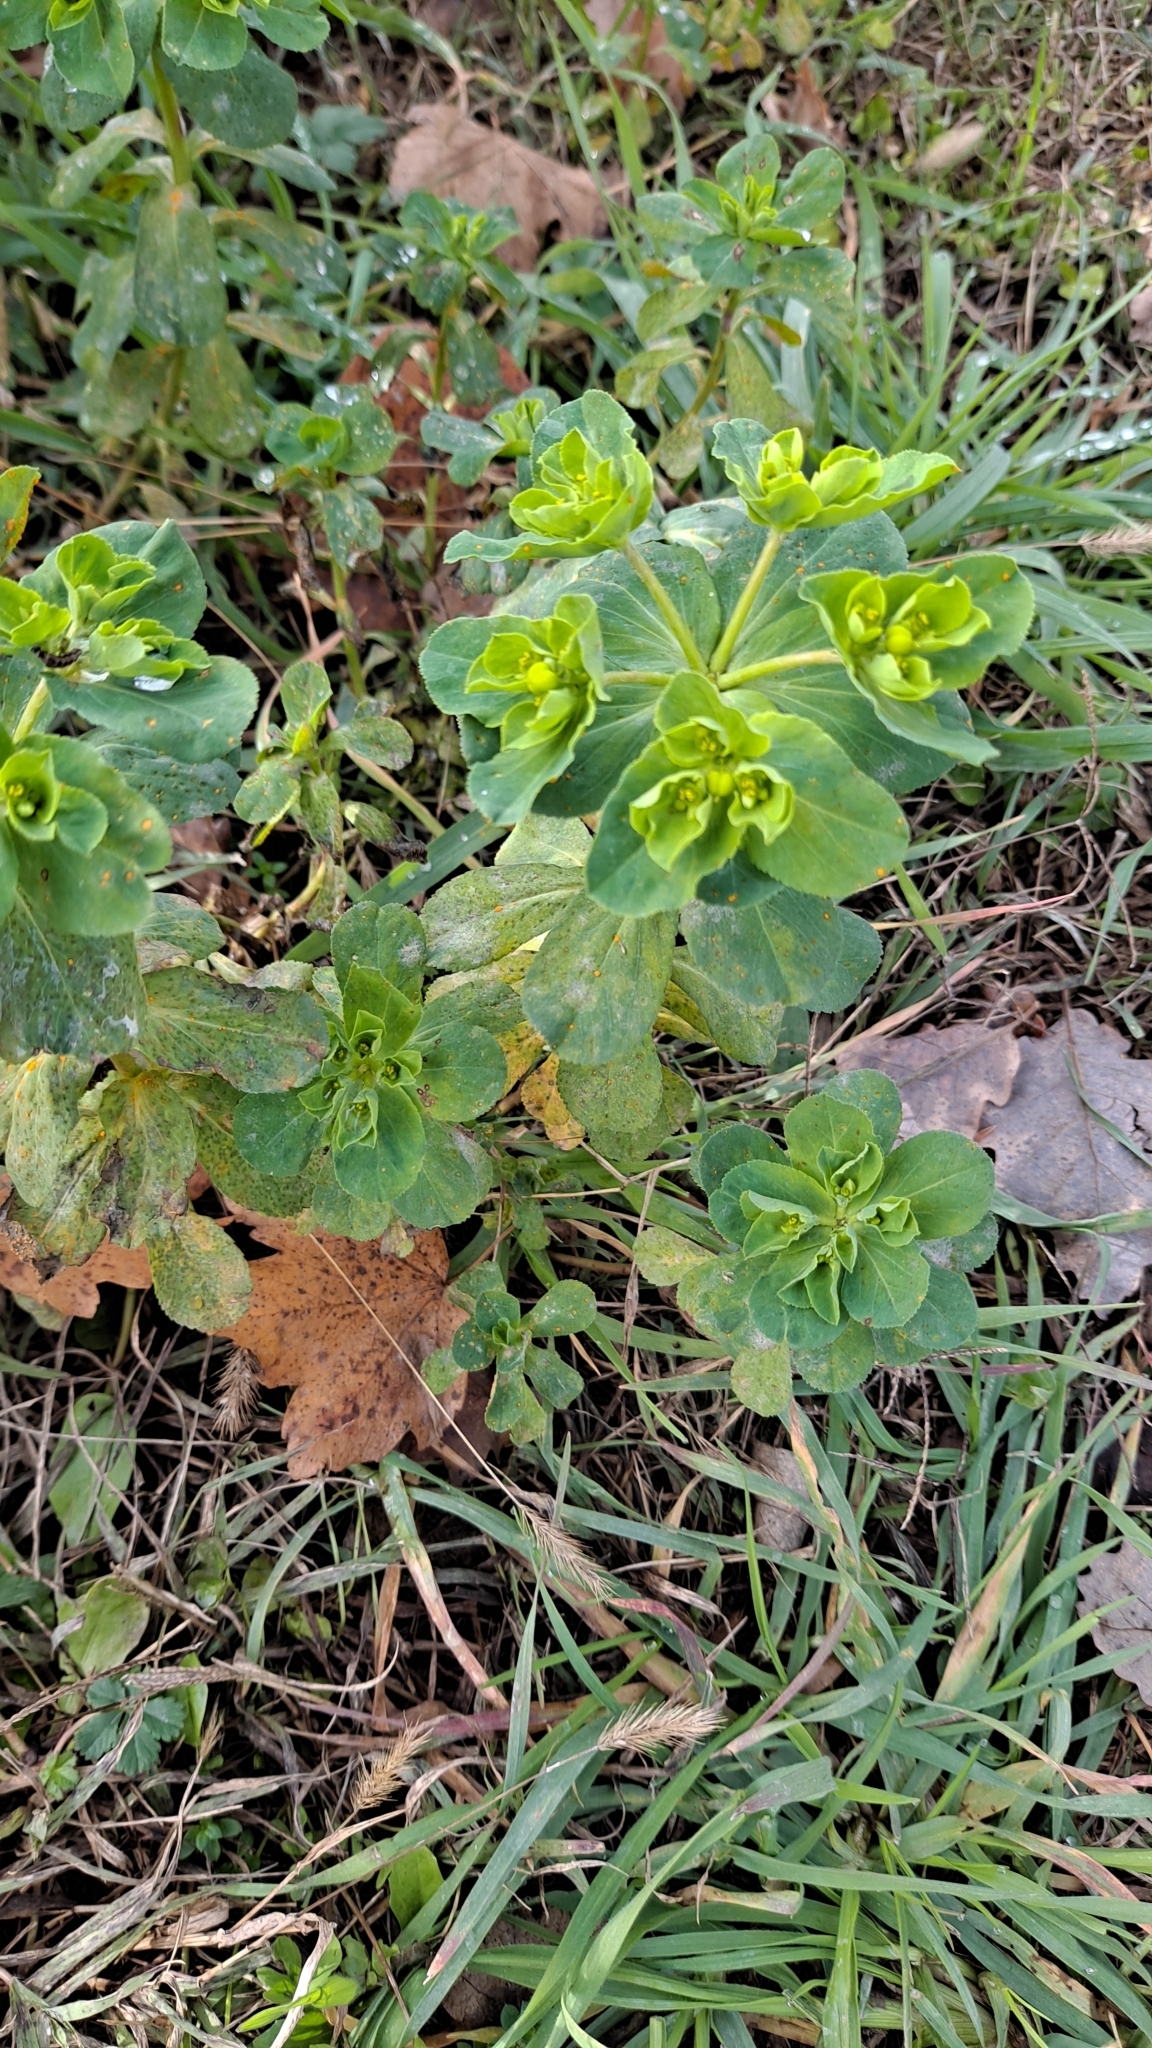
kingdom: Plantae
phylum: Tracheophyta
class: Magnoliopsida
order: Malpighiales
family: Euphorbiaceae
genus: Euphorbia
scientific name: Euphorbia helioscopia
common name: Sun spurge
